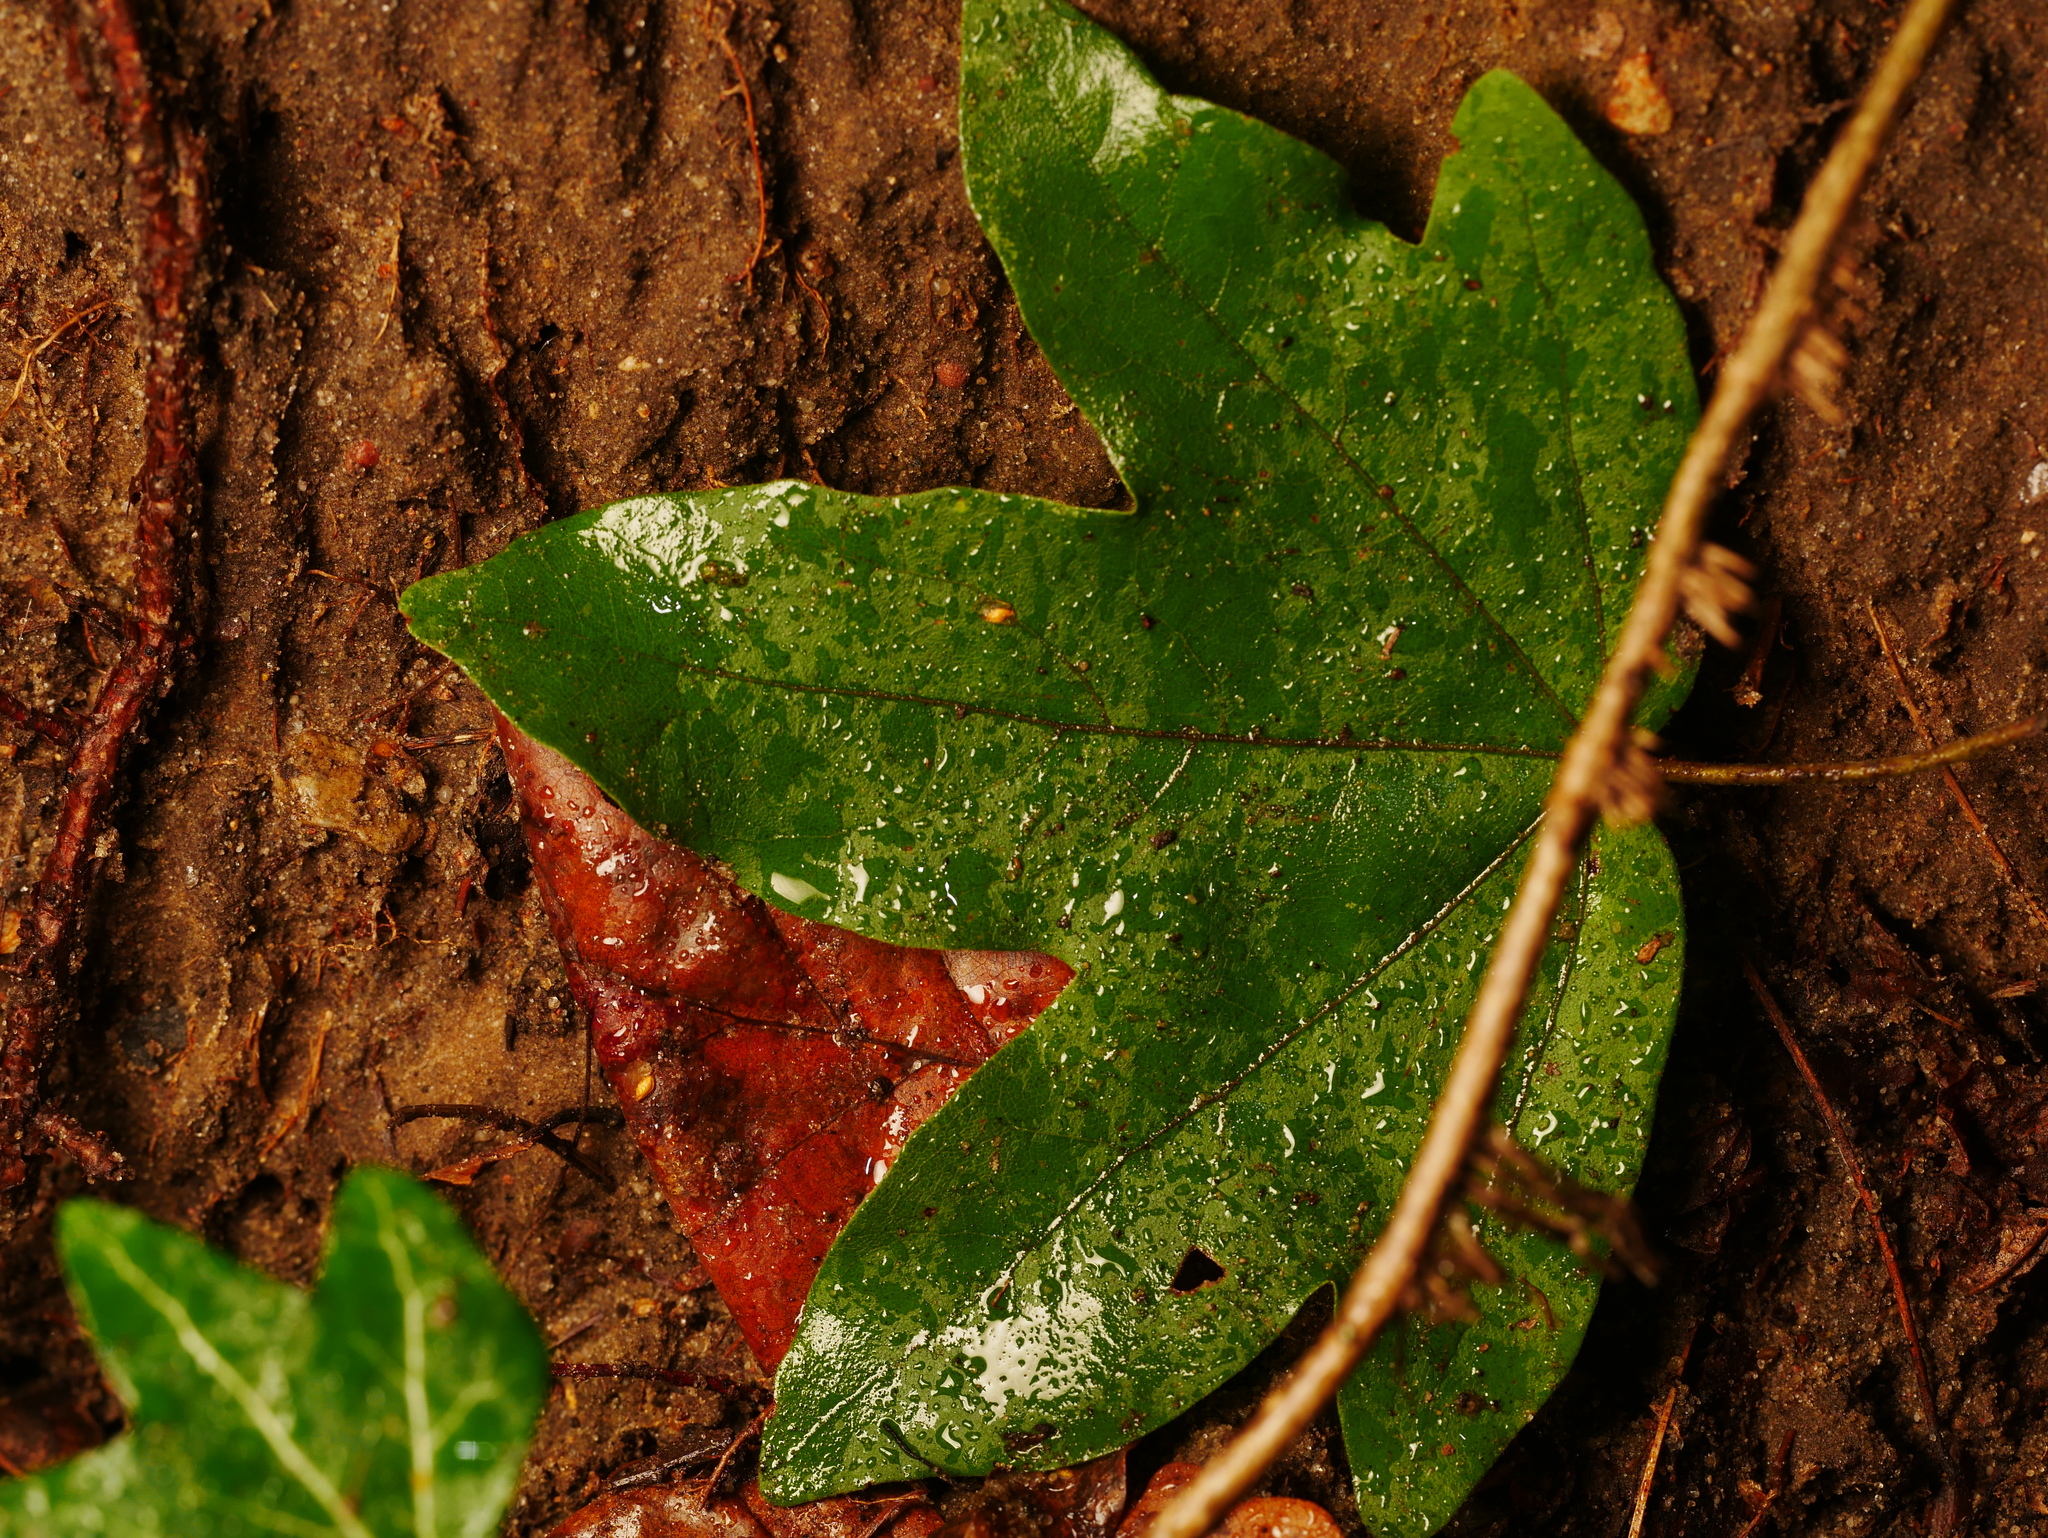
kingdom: Plantae
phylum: Tracheophyta
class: Magnoliopsida
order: Sapindales
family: Sapindaceae
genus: Acer
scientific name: Acer campestre
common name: Field maple
